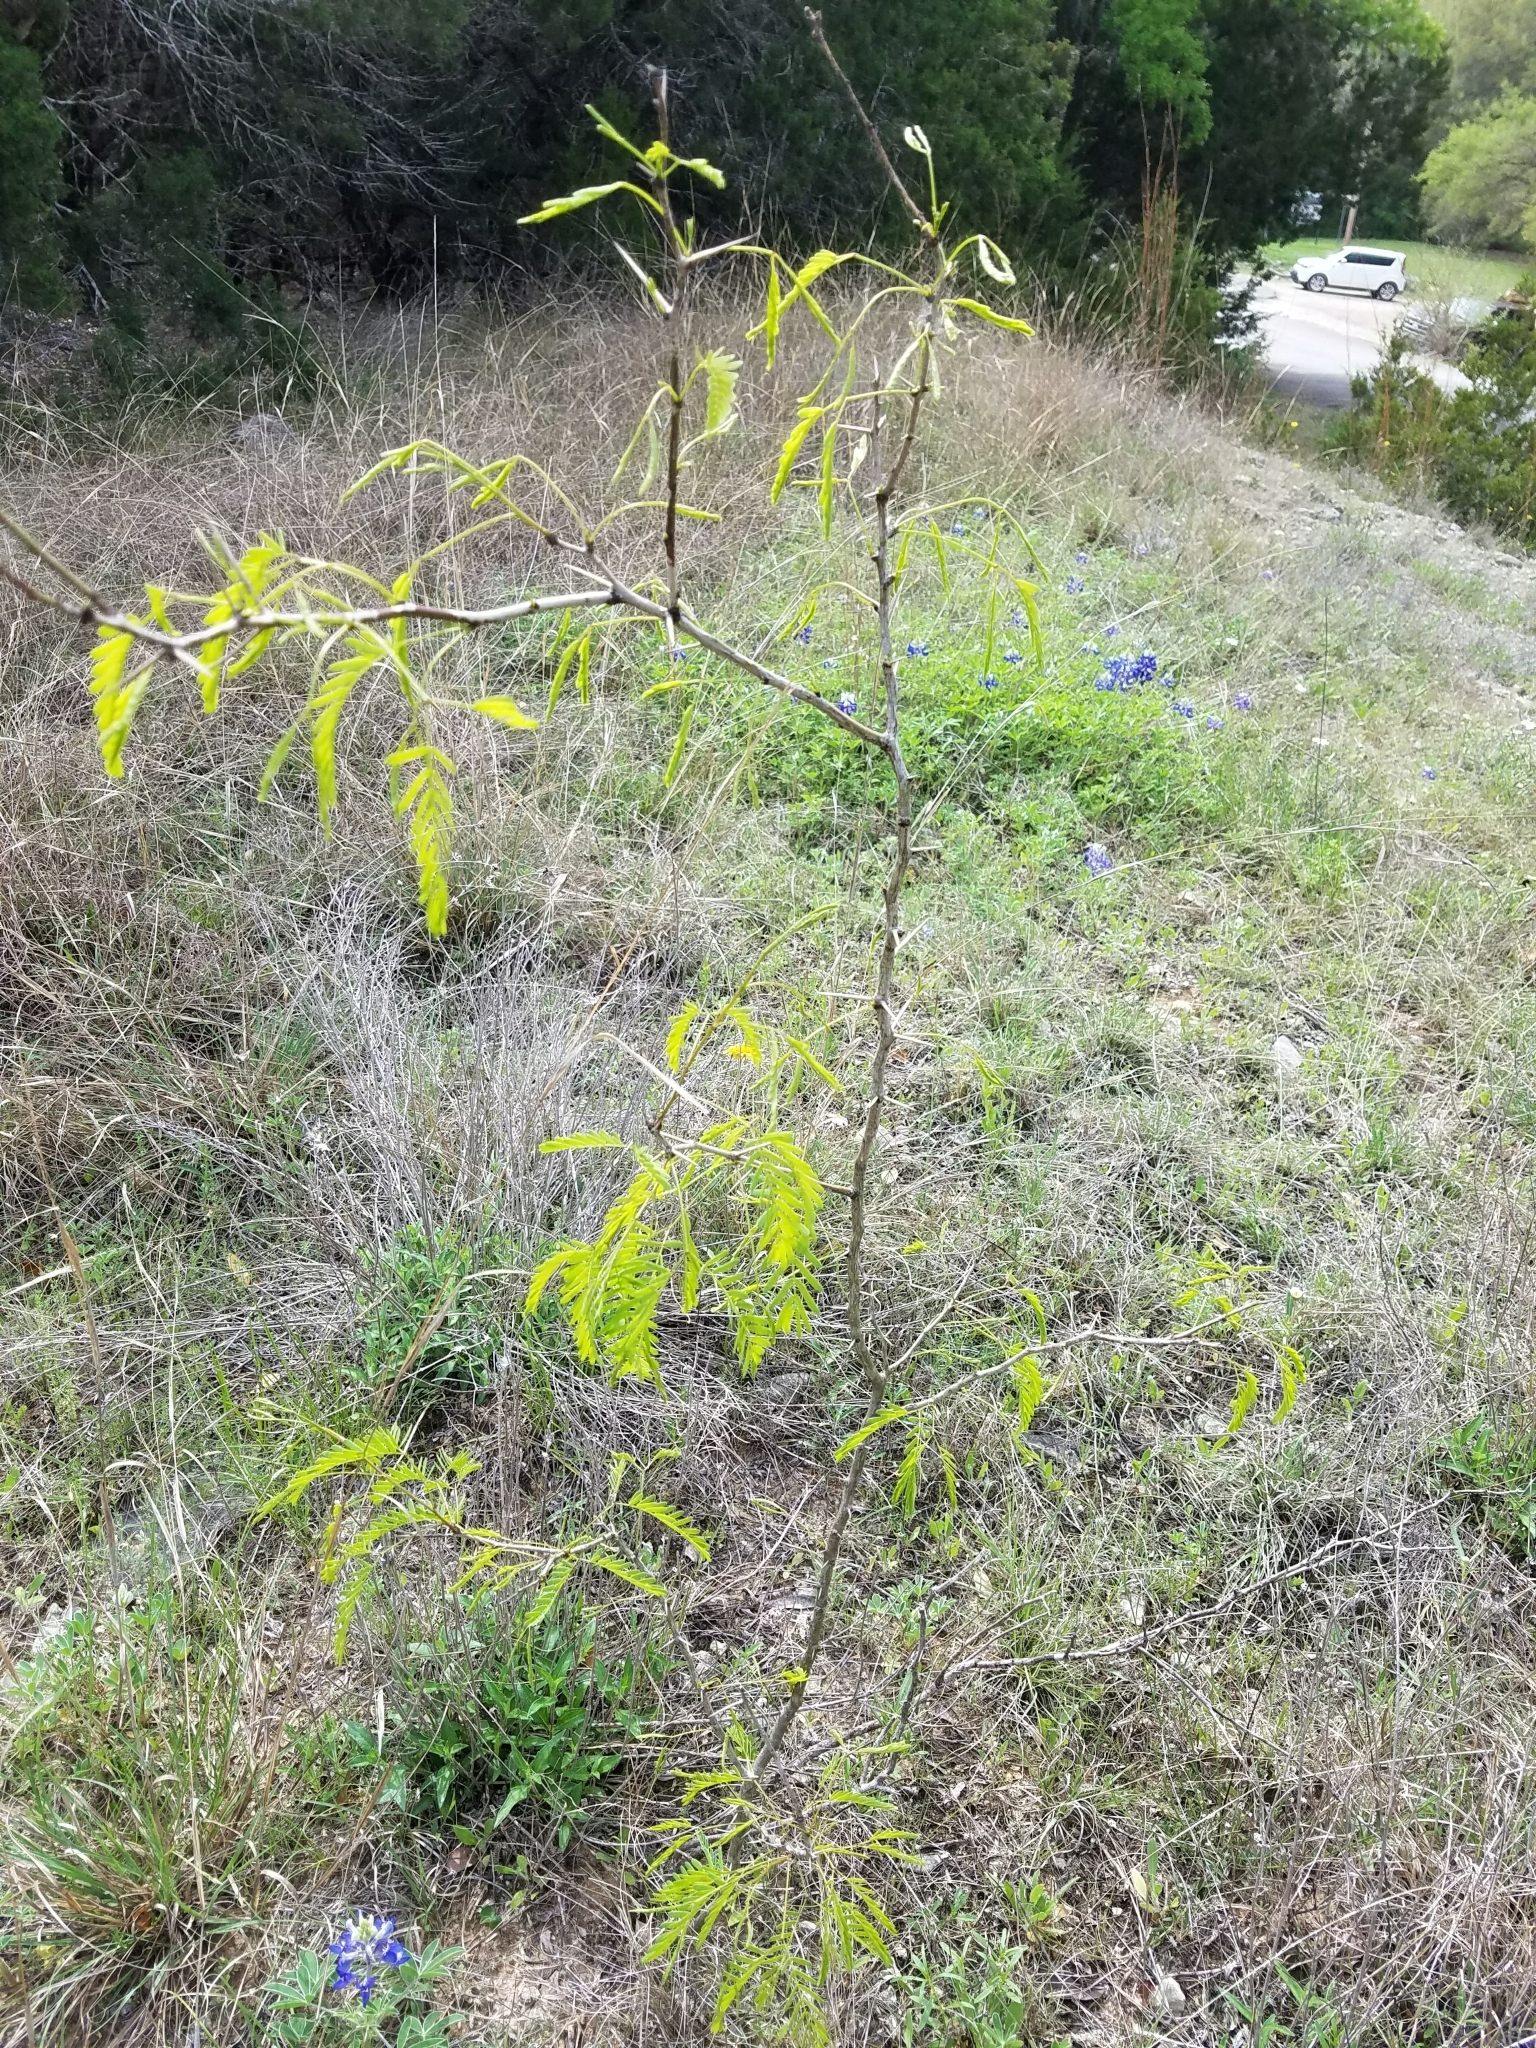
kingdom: Plantae
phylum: Tracheophyta
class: Magnoliopsida
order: Fabales
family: Fabaceae
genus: Prosopis
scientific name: Prosopis glandulosa
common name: Honey mesquite
